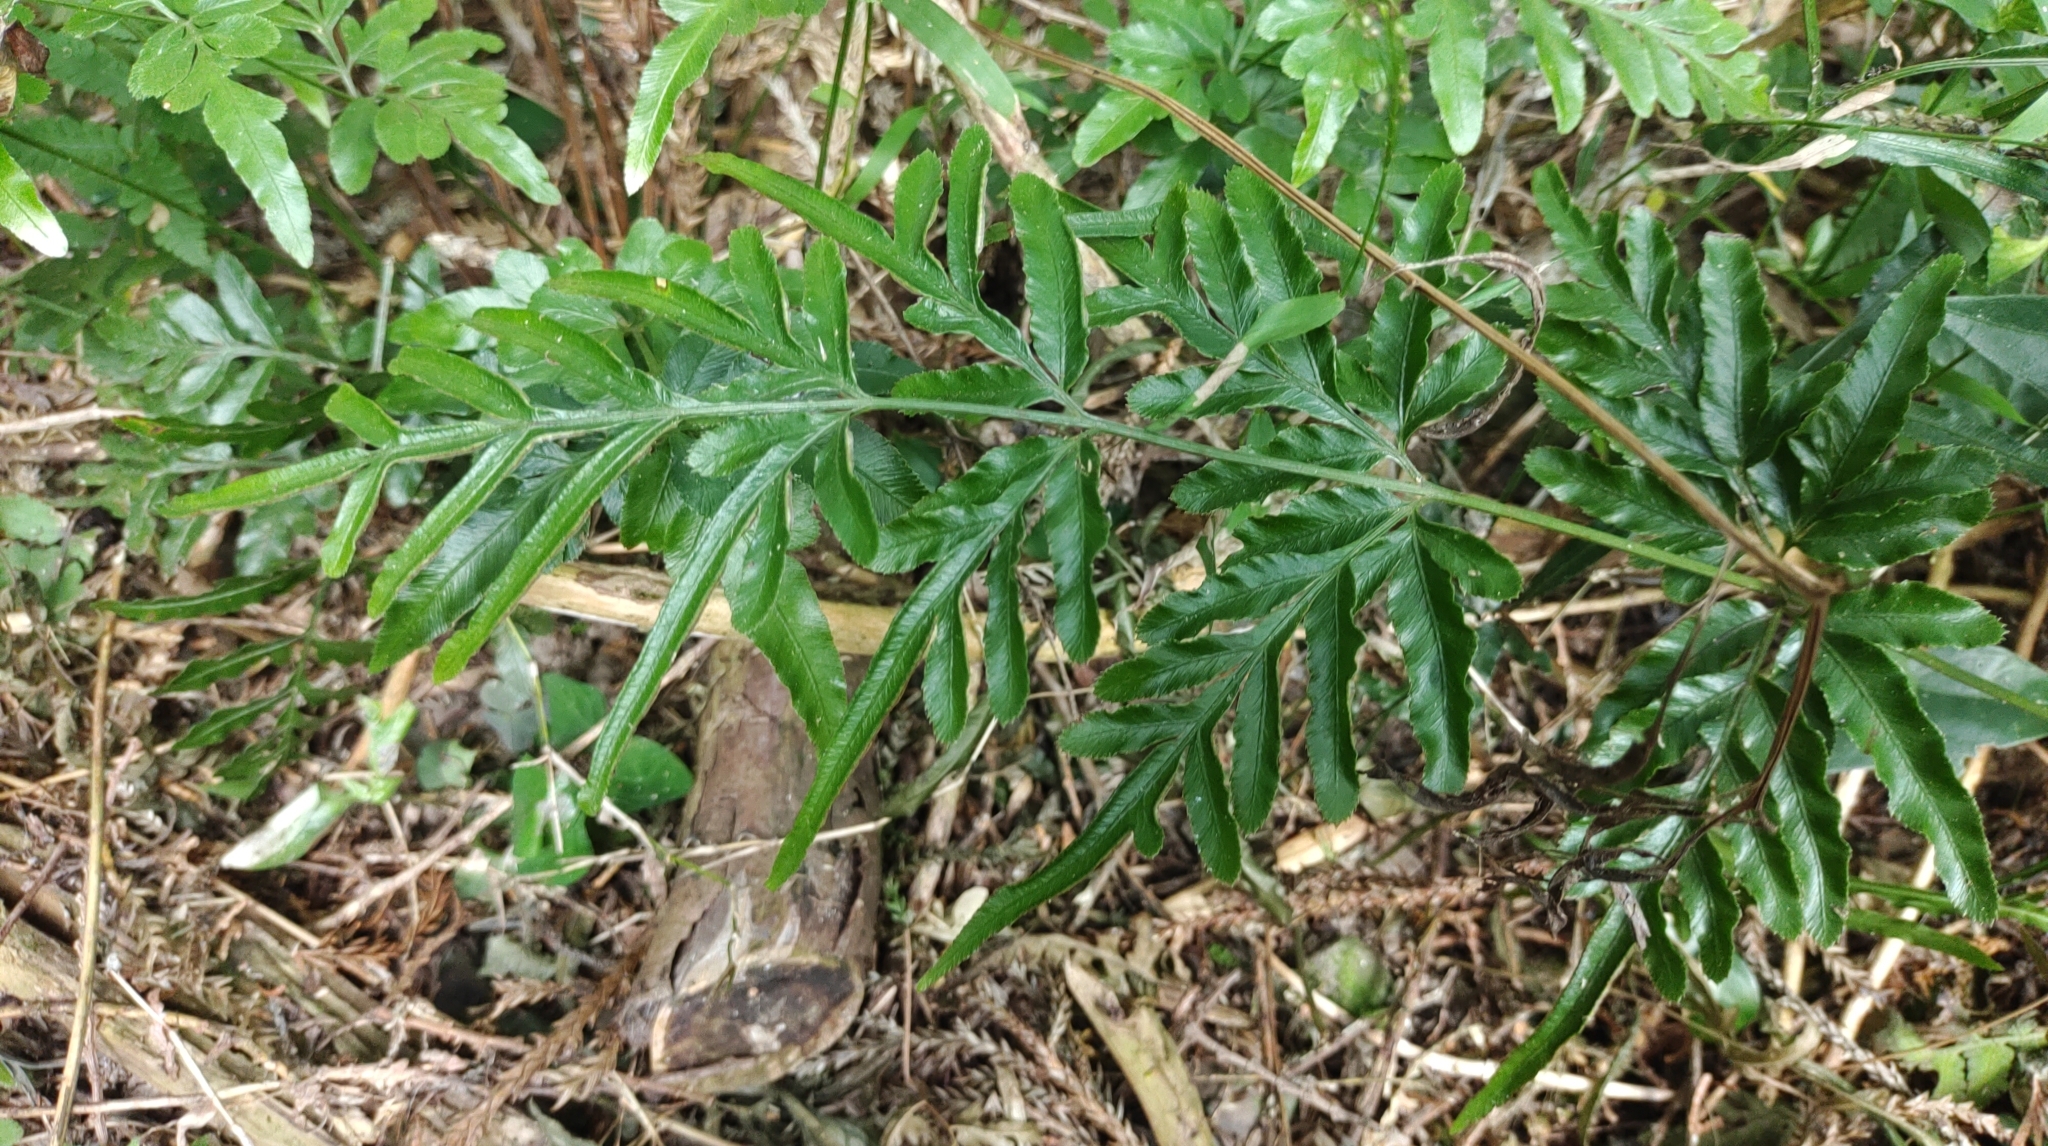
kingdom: Plantae
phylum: Tracheophyta
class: Polypodiopsida
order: Polypodiales
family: Pteridaceae
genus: Pteris
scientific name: Pteris ensiformis
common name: Sword brake
